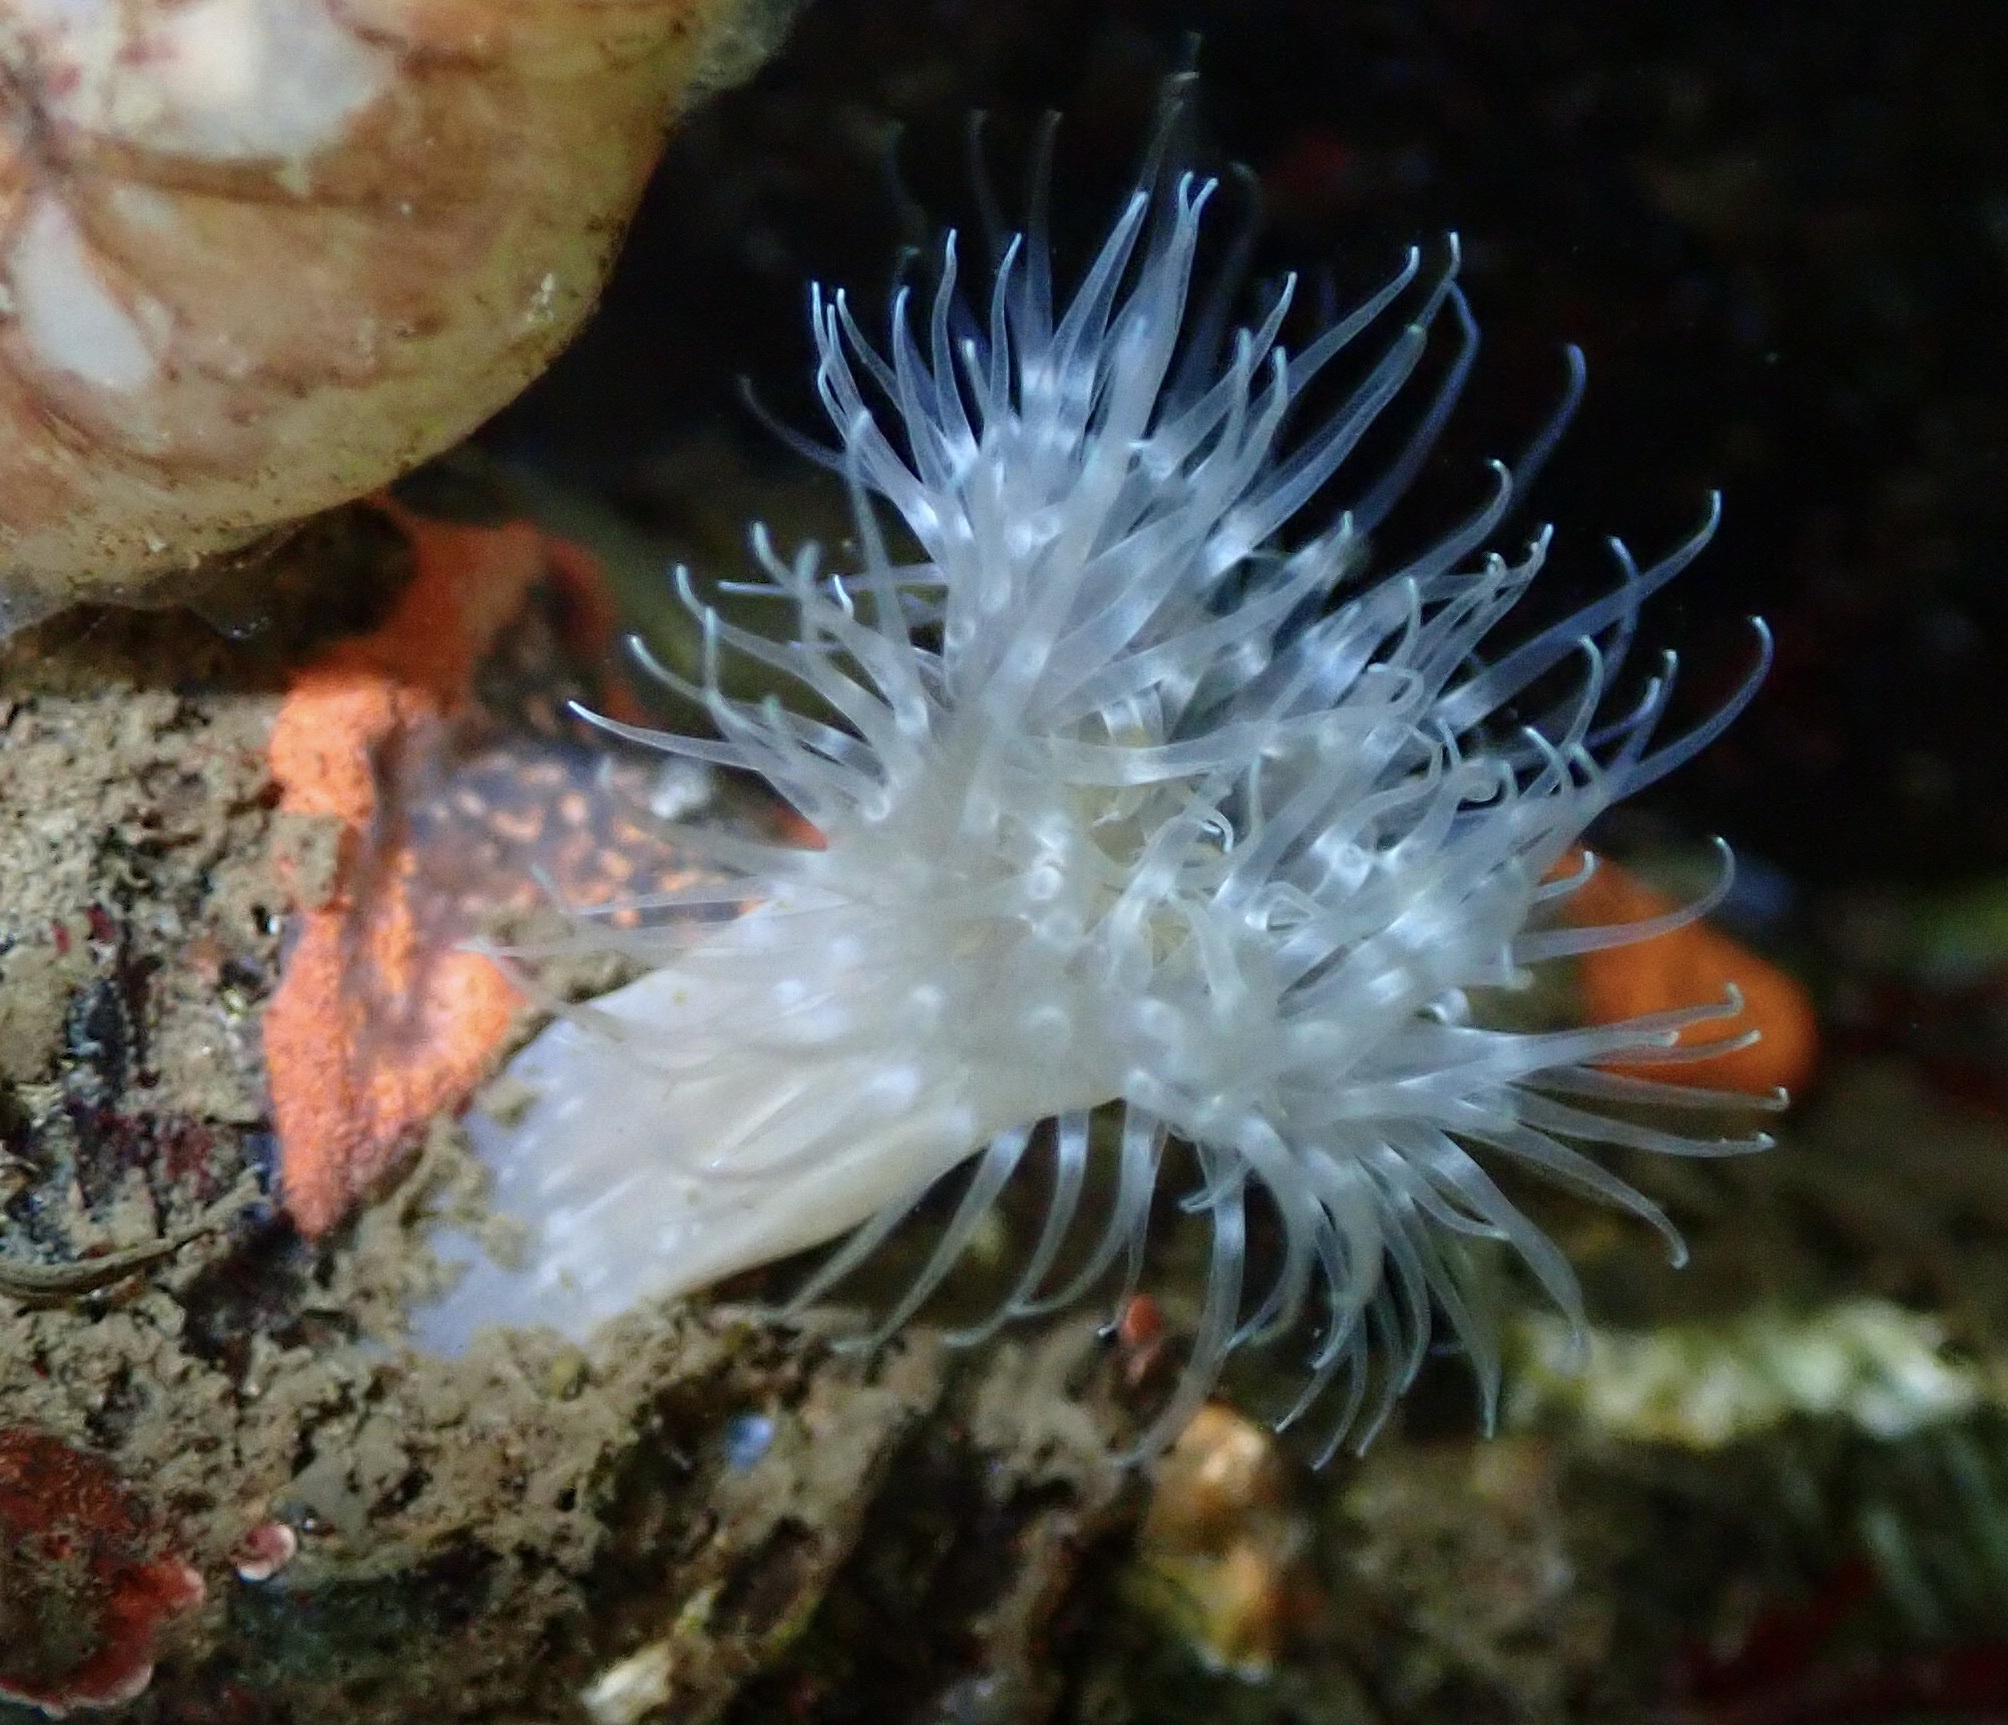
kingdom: Animalia
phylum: Cnidaria
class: Anthozoa
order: Actiniaria
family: Metridiidae
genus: Metridium
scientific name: Metridium senile
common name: Clonal plumose anemone
